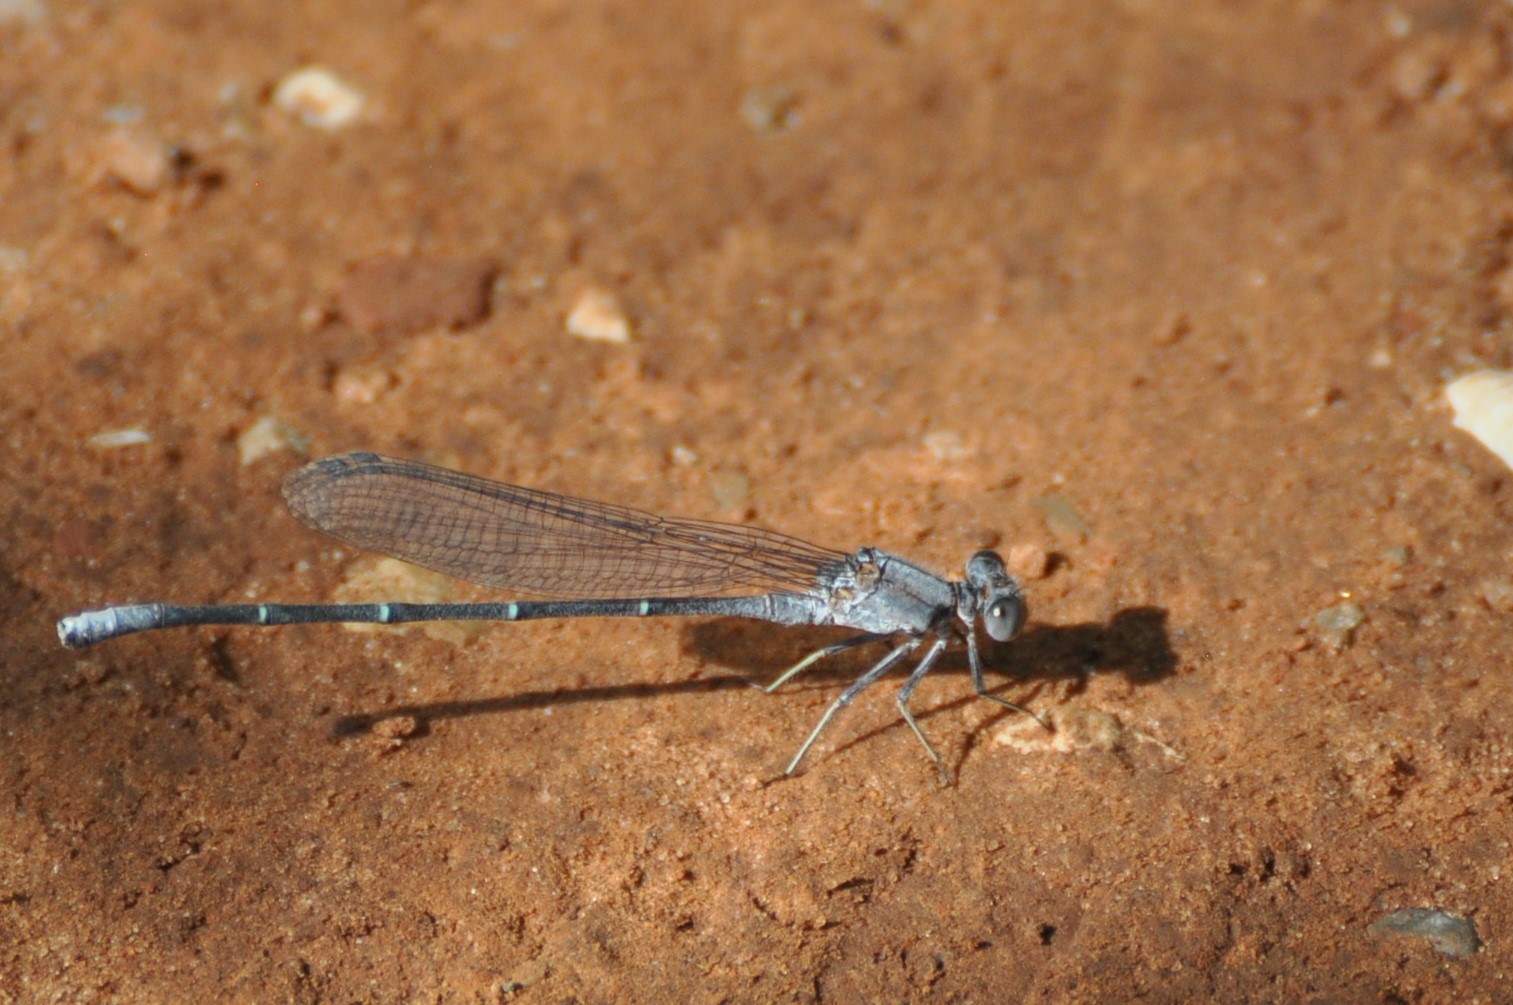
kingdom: Animalia
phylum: Arthropoda
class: Insecta
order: Odonata
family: Coenagrionidae
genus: Argia
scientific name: Argia moesta
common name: Powdered dancer
